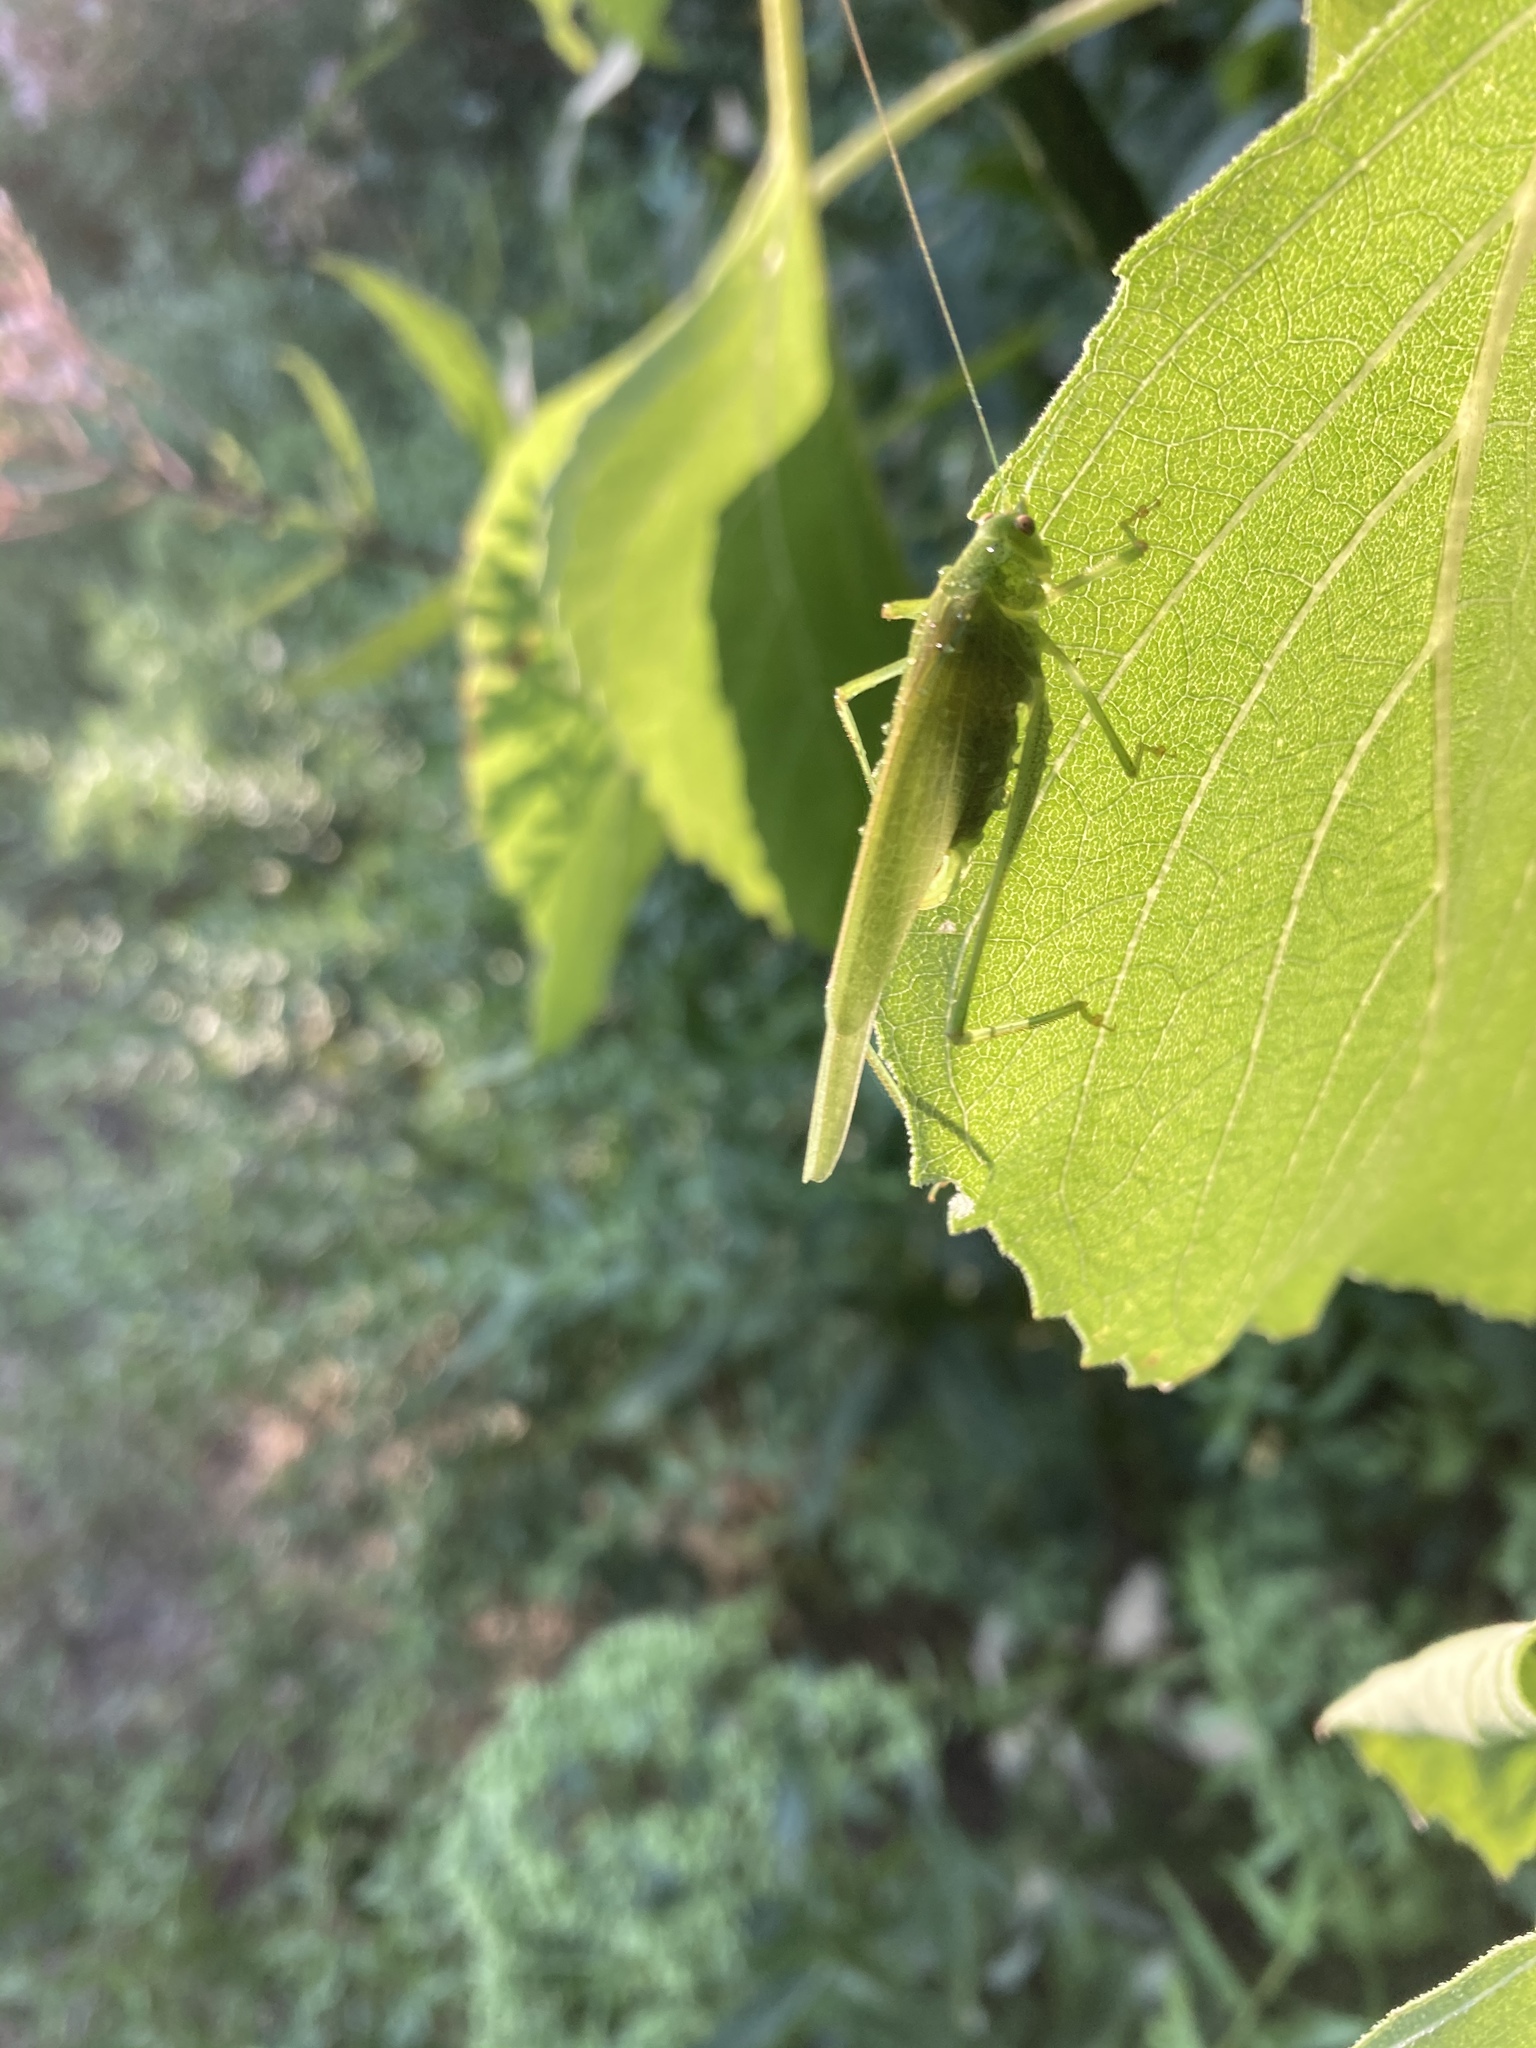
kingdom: Animalia
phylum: Arthropoda
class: Insecta
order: Orthoptera
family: Tettigoniidae
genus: Phaneroptera
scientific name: Phaneroptera nana
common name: Southern sickle bush-cricket
